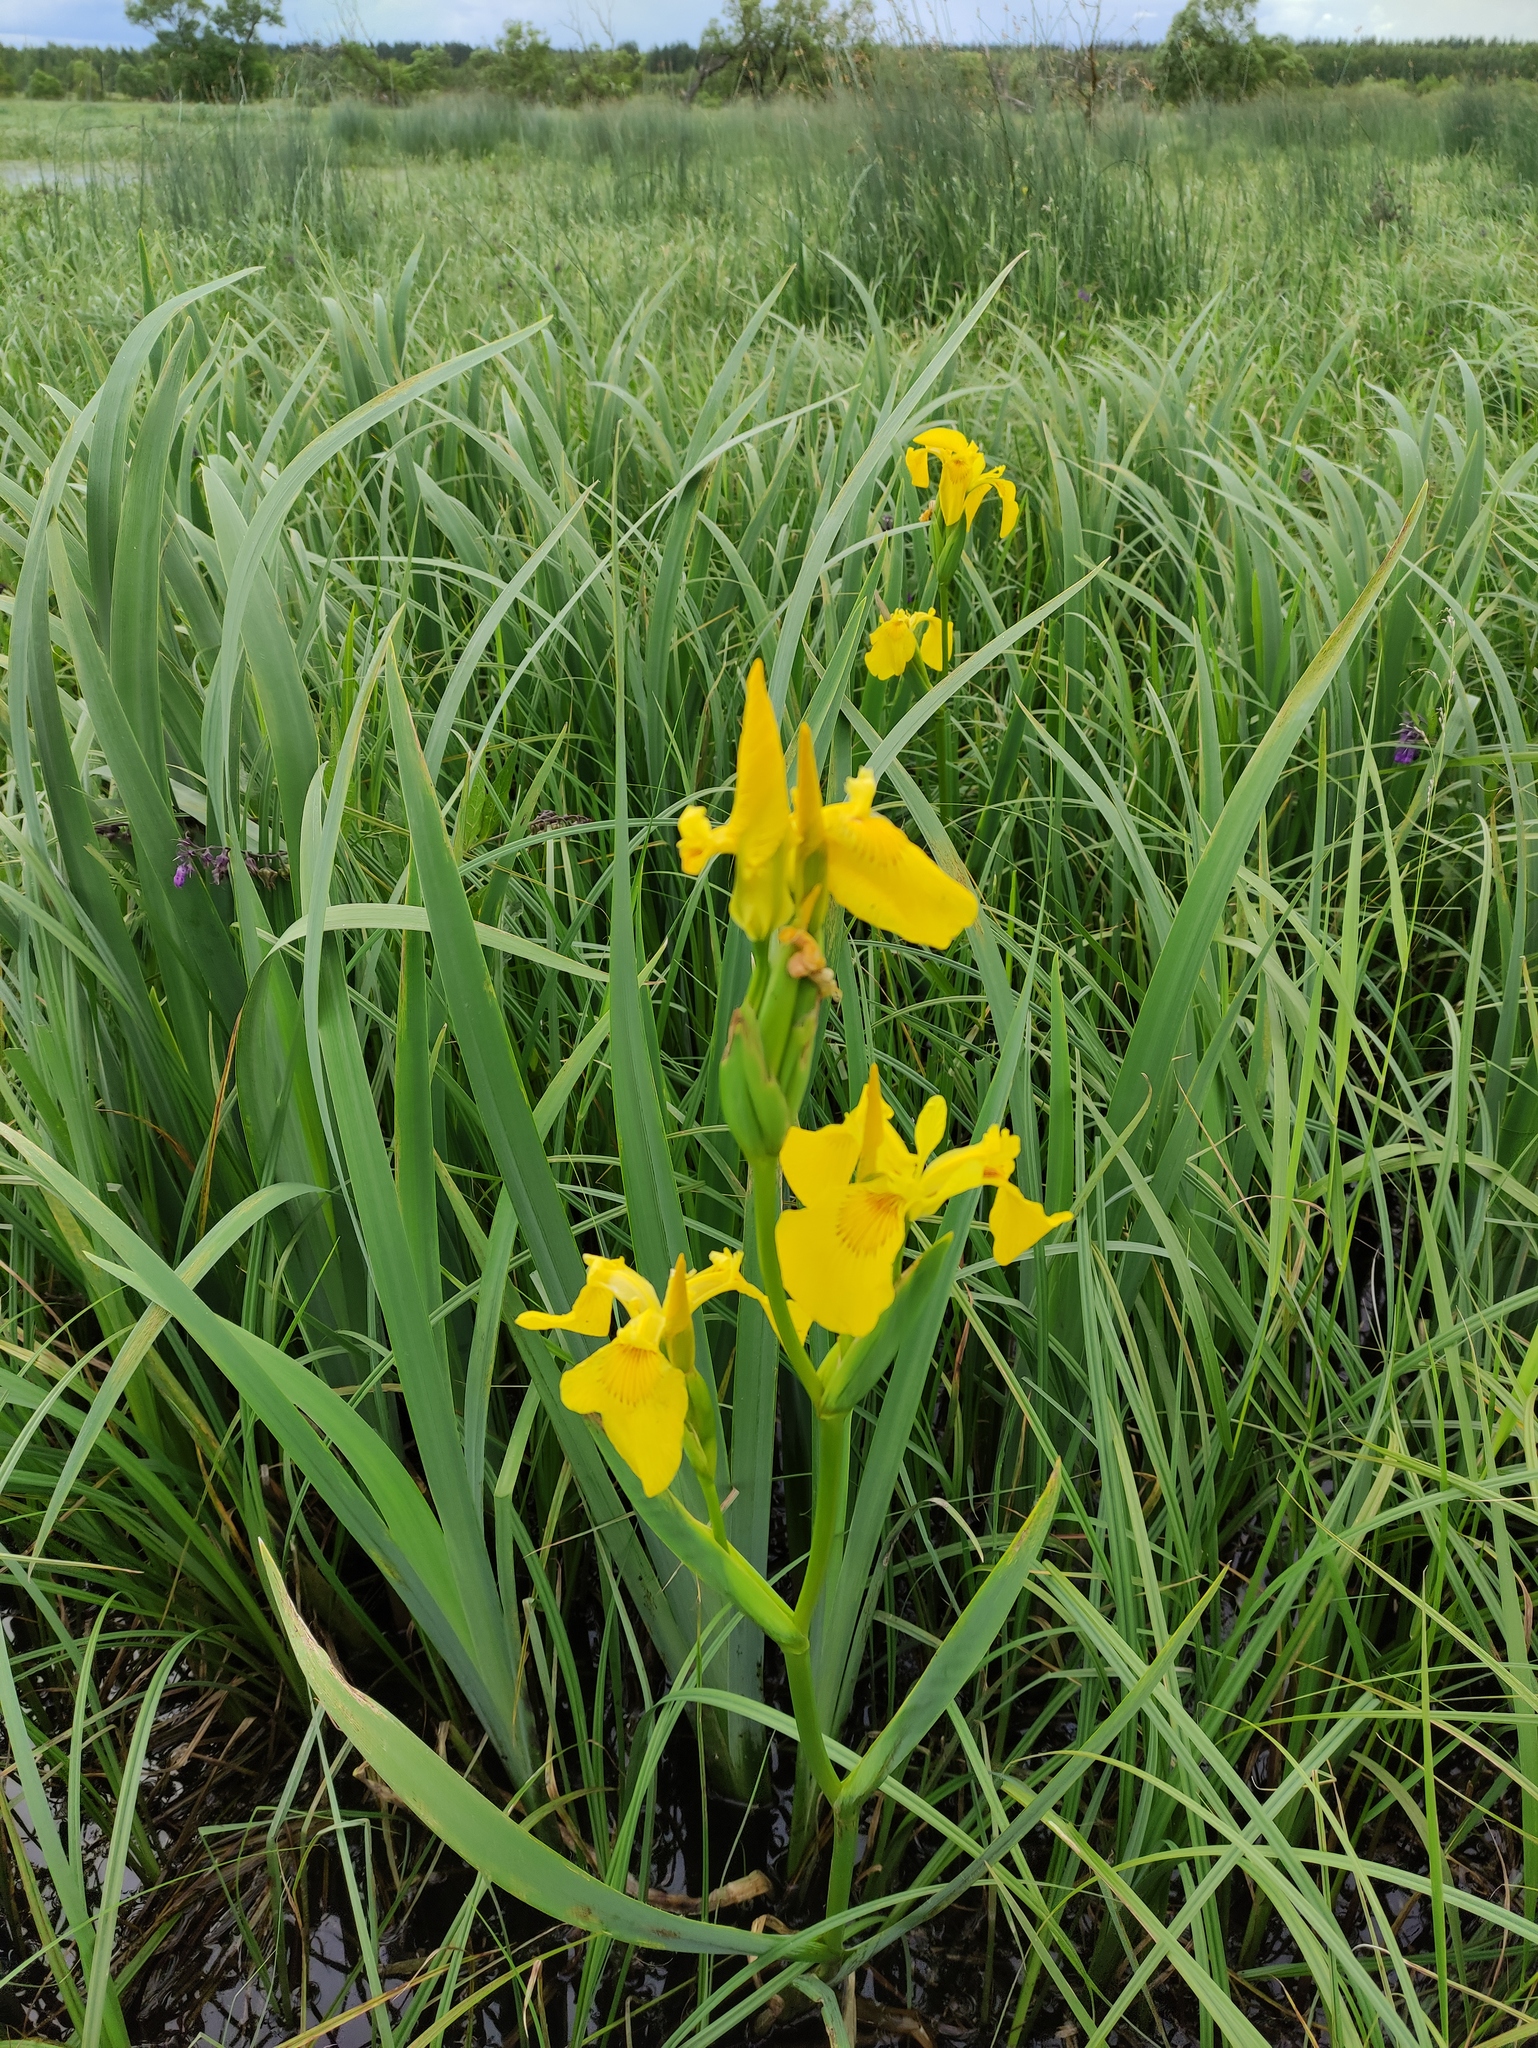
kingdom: Plantae
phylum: Tracheophyta
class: Liliopsida
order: Asparagales
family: Iridaceae
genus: Iris
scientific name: Iris pseudacorus
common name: Yellow flag
